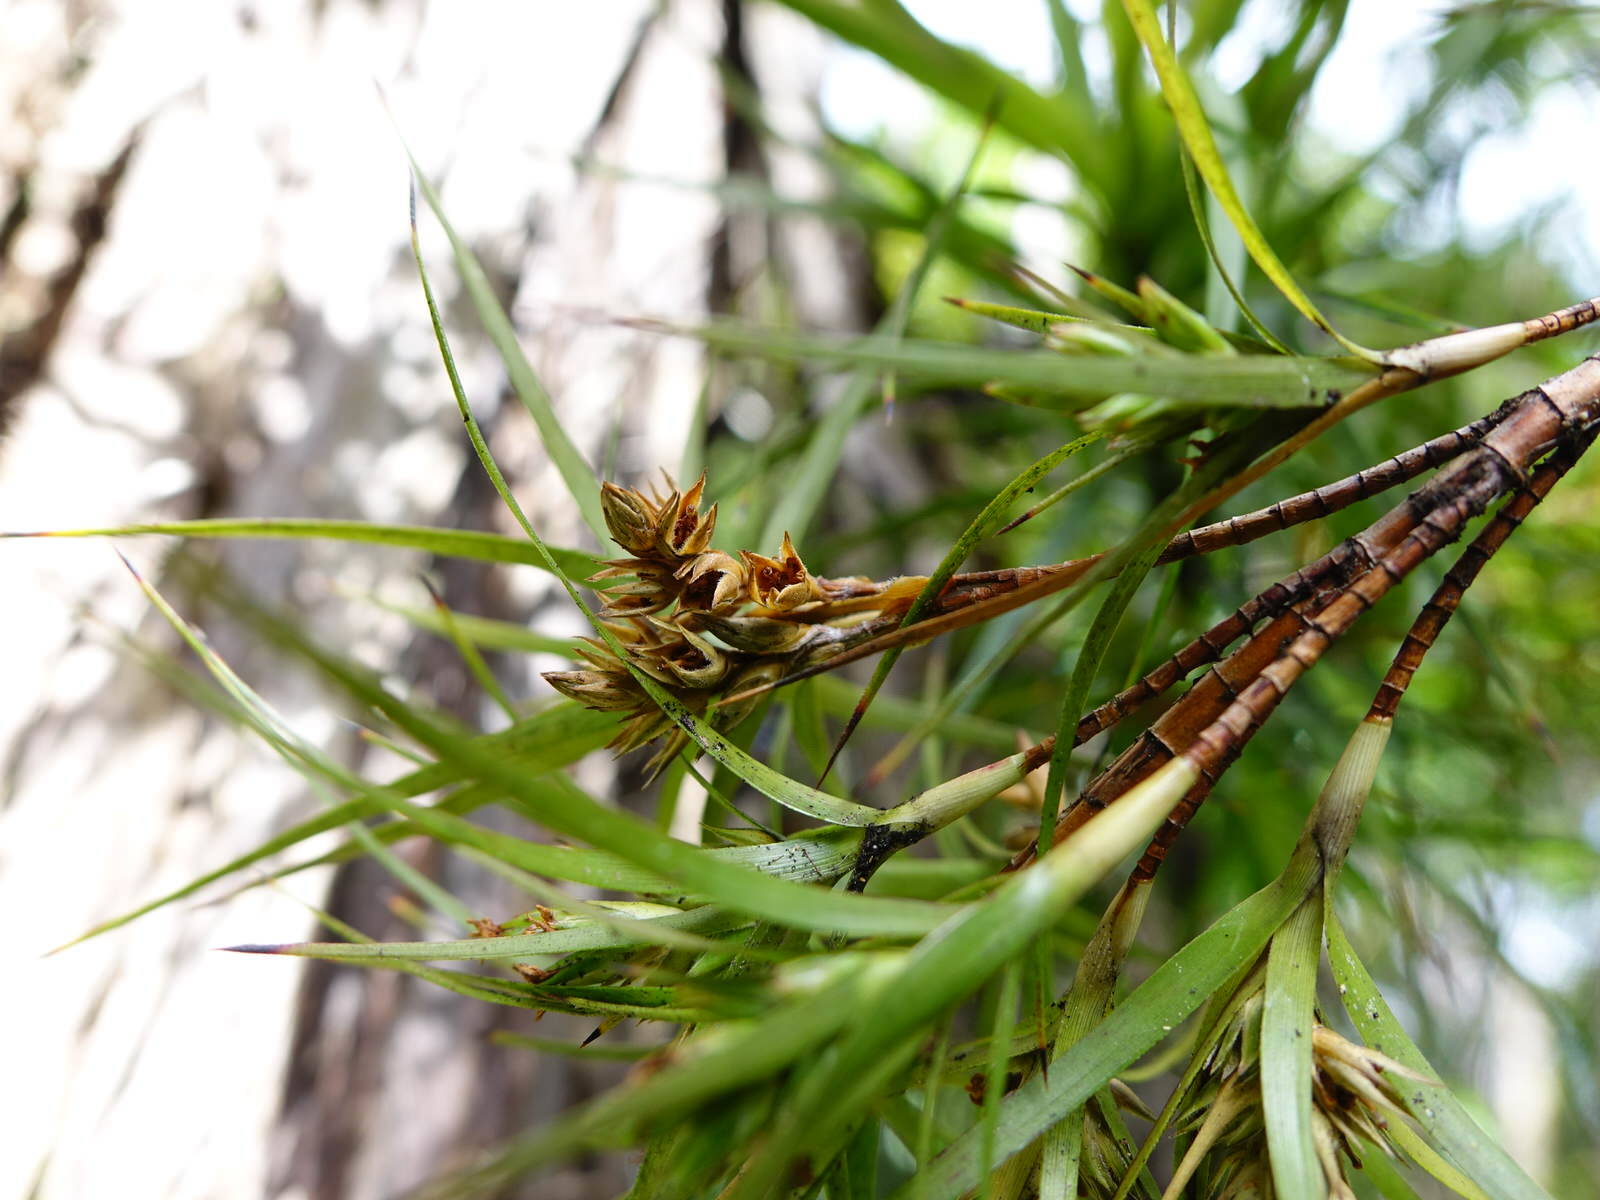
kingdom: Plantae
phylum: Tracheophyta
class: Magnoliopsida
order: Ericales
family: Ericaceae
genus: Dracophyllum
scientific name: Dracophyllum sinclairii
